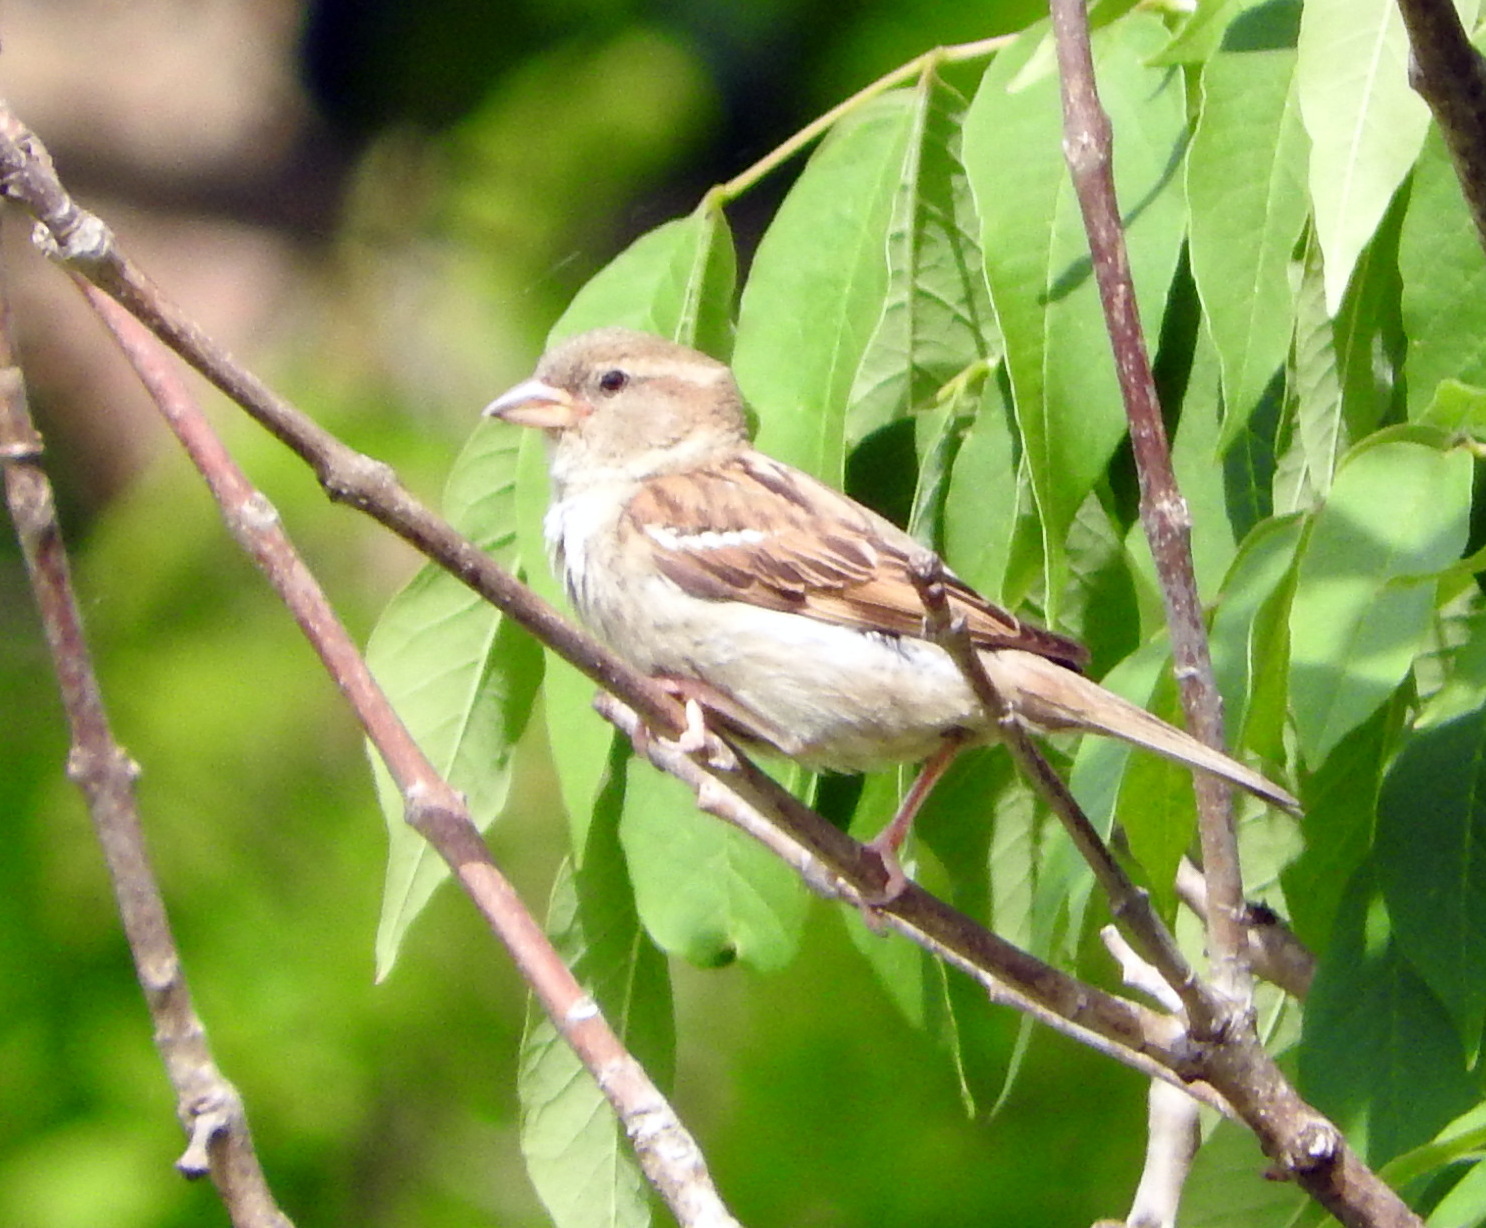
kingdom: Animalia
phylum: Chordata
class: Aves
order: Passeriformes
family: Passeridae
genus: Passer
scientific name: Passer domesticus
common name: House sparrow
